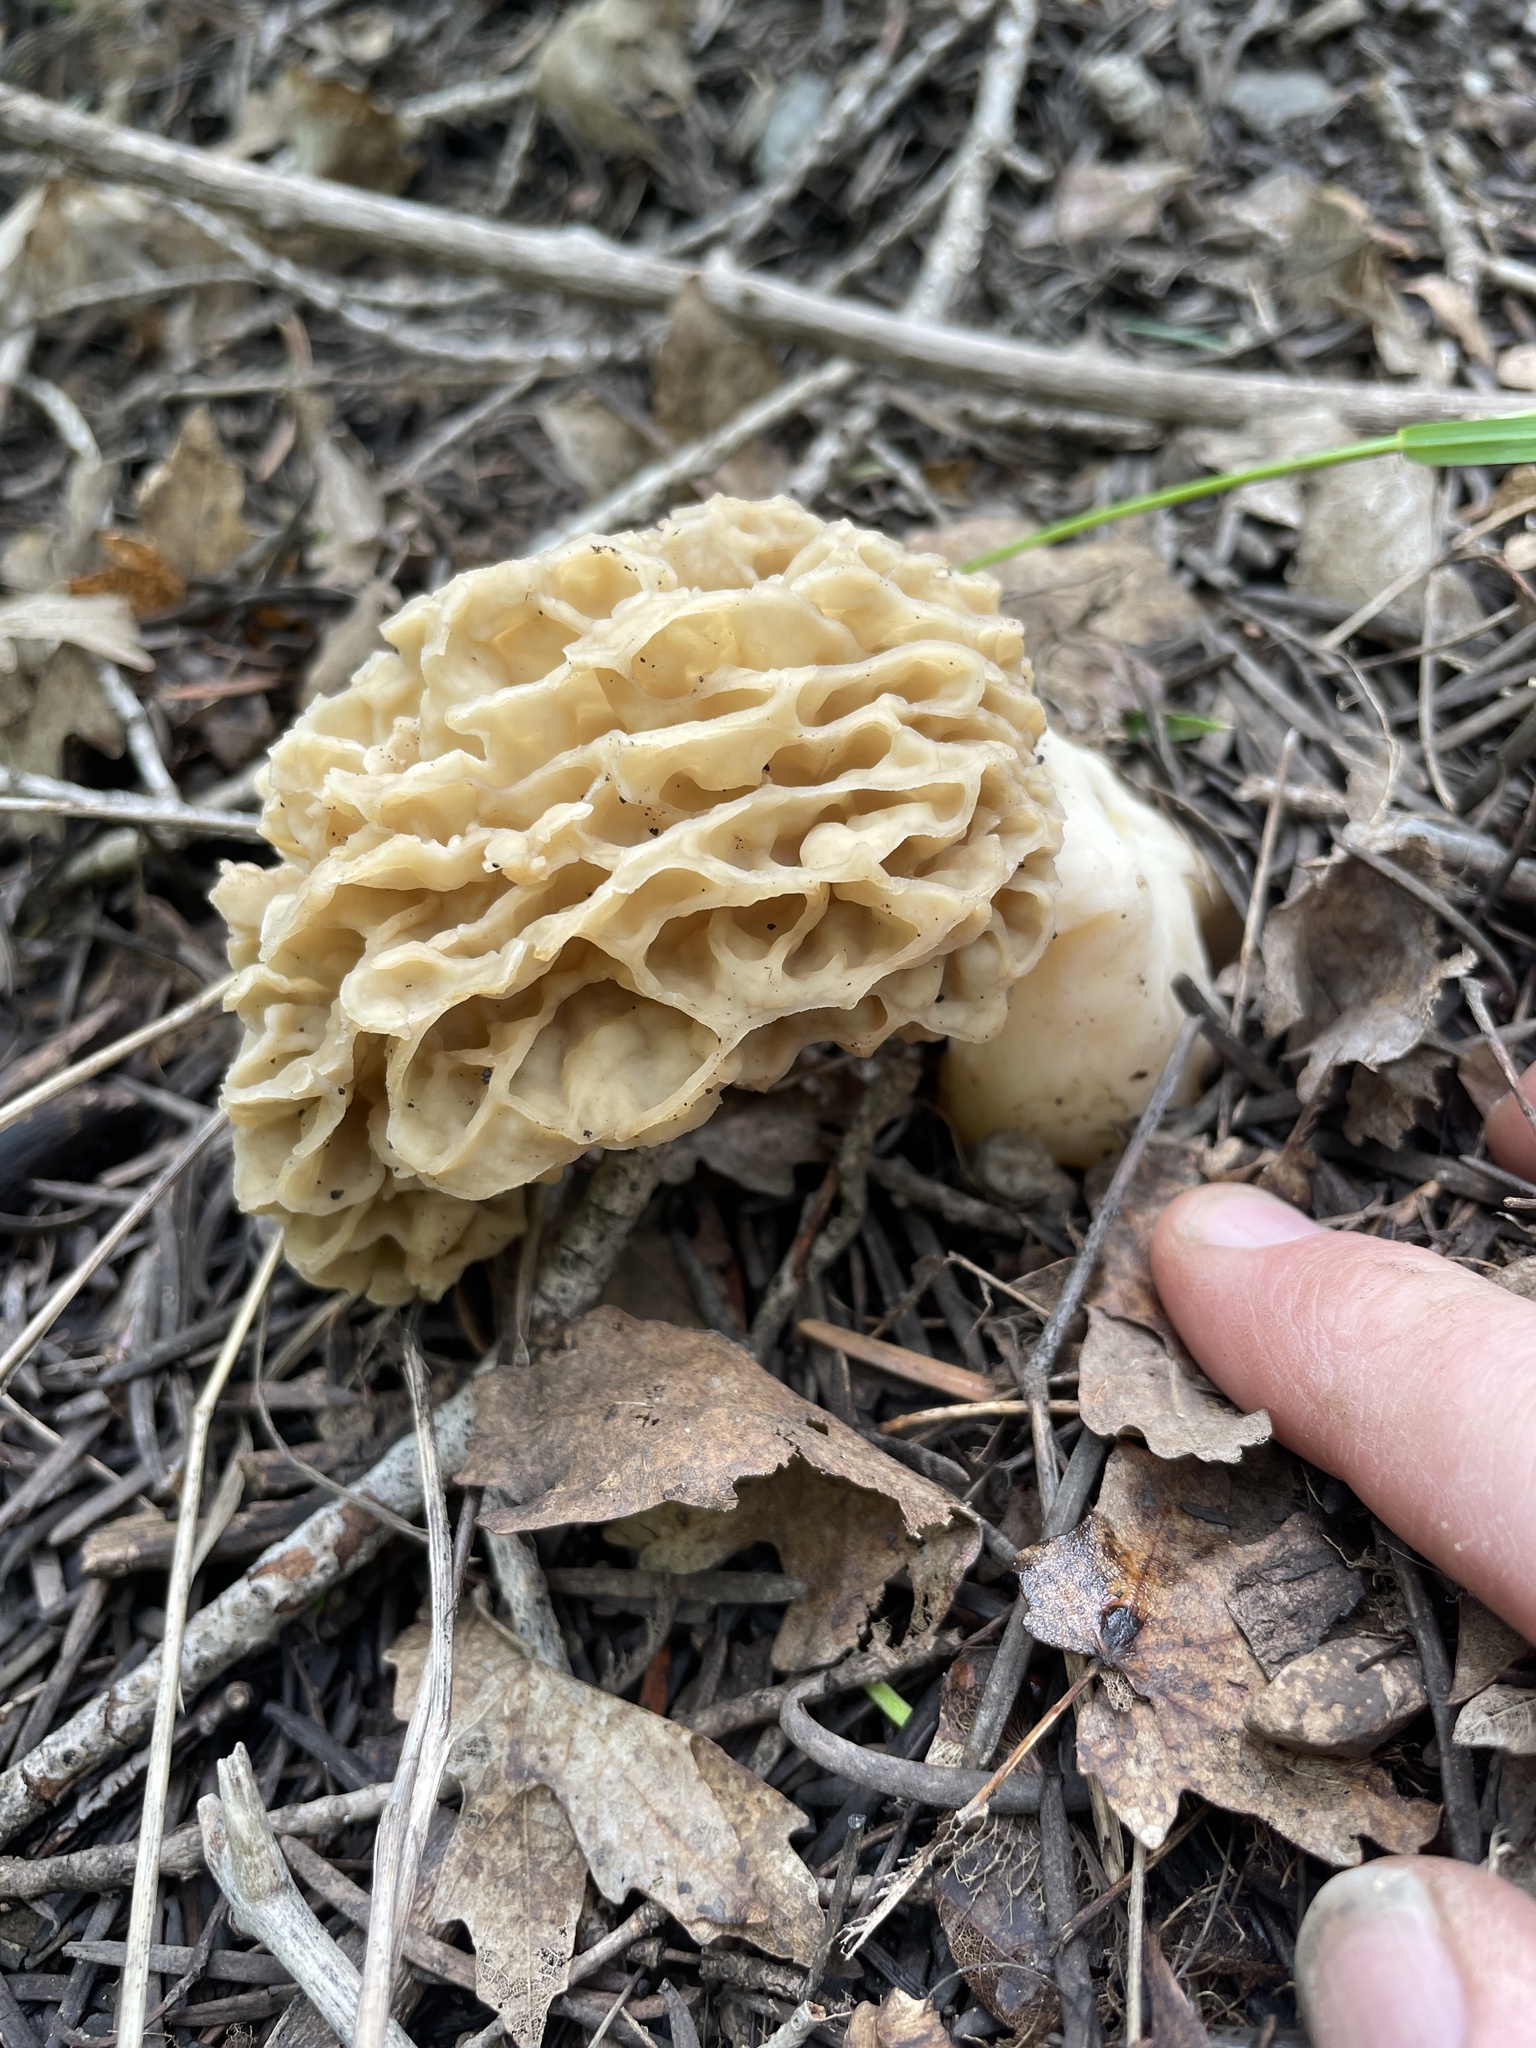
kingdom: Fungi
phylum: Ascomycota
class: Pezizomycetes
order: Pezizales
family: Morchellaceae
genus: Morchella
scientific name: Morchella americana
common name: White morel
